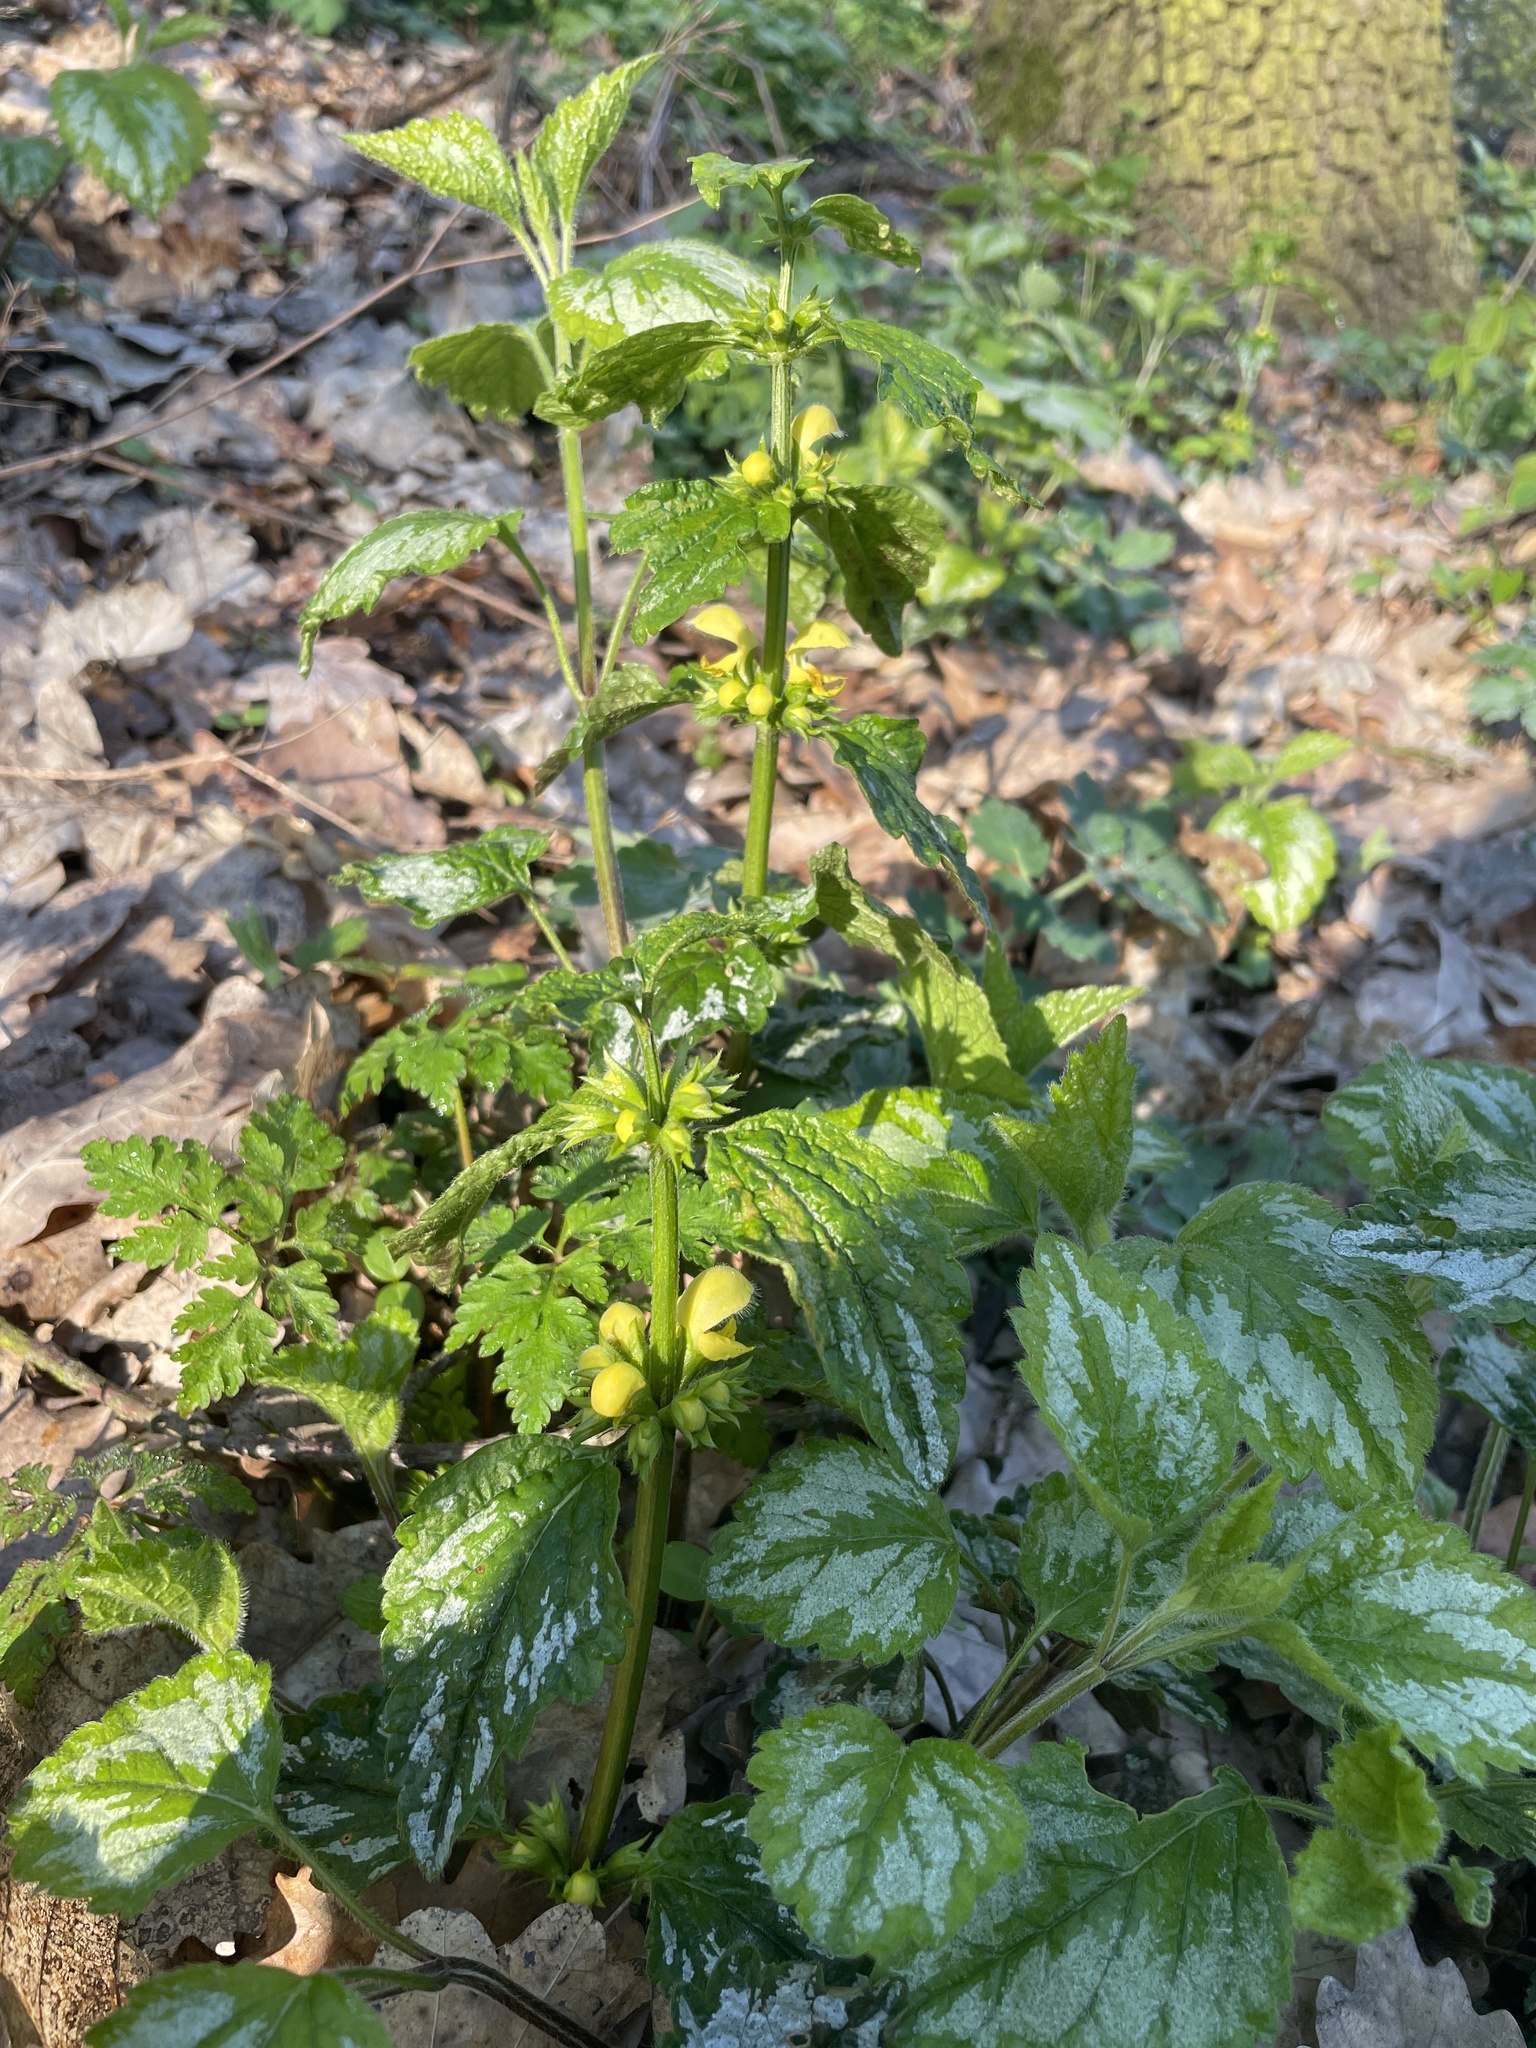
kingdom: Plantae
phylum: Tracheophyta
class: Magnoliopsida
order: Lamiales
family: Lamiaceae
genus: Lamium
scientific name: Lamium galeobdolon
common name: Yellow archangel
